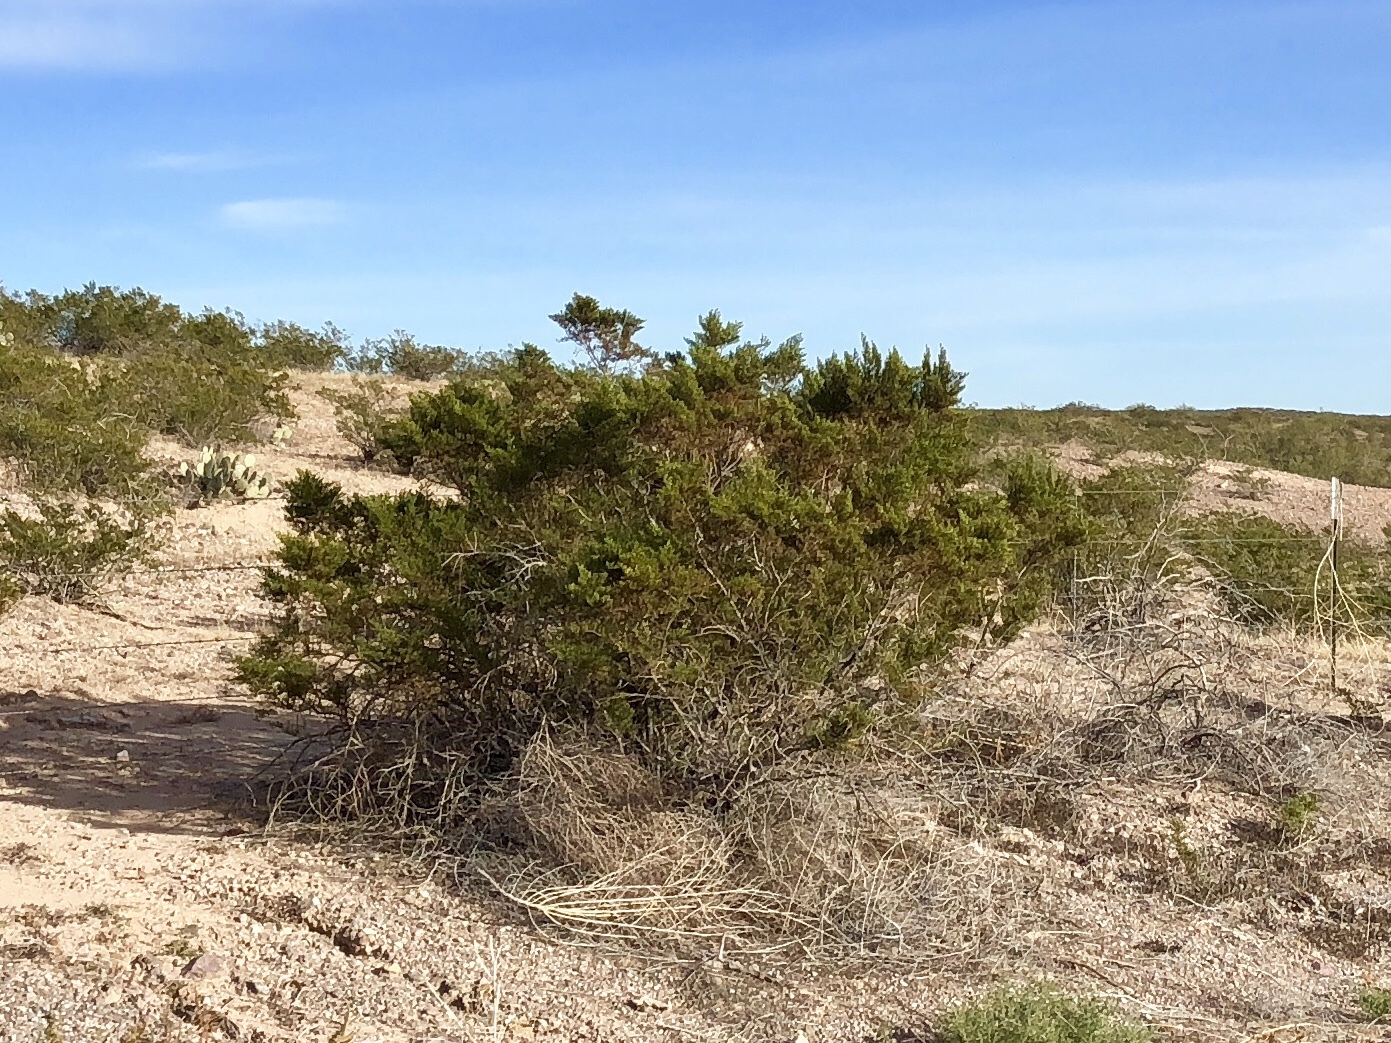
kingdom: Plantae
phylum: Tracheophyta
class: Magnoliopsida
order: Zygophyllales
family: Zygophyllaceae
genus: Larrea
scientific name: Larrea tridentata
